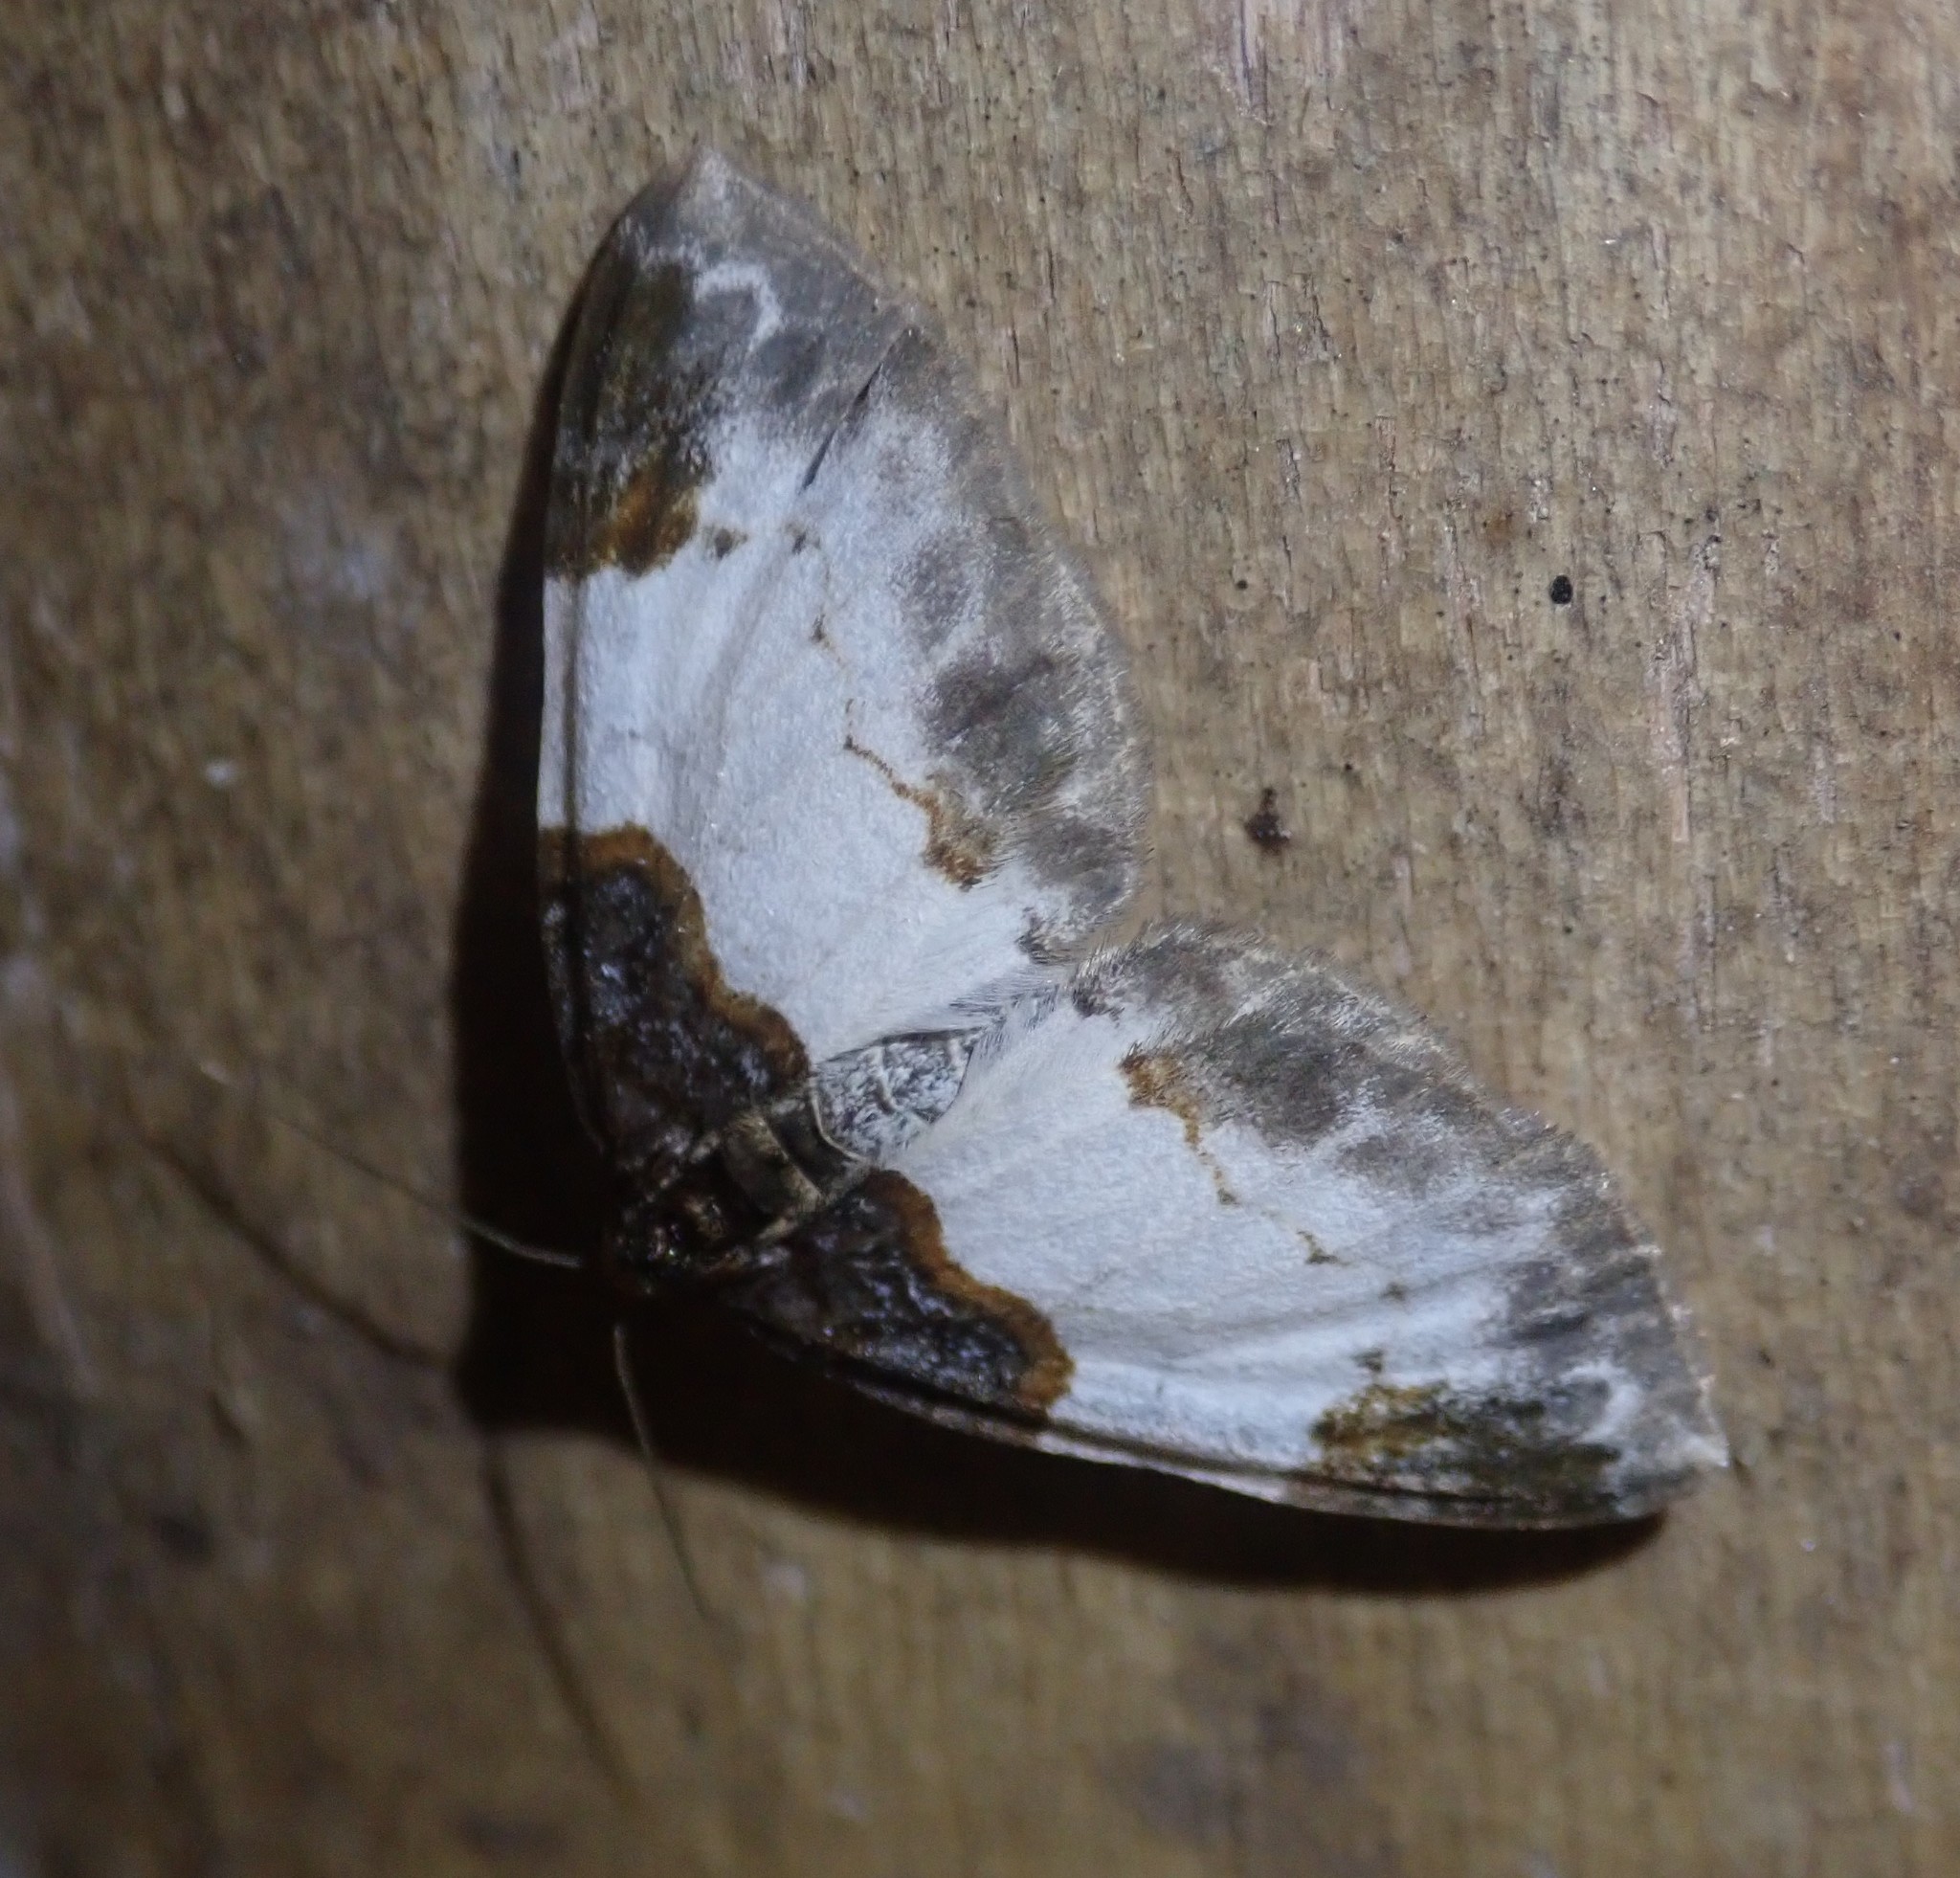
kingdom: Animalia
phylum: Arthropoda
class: Insecta
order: Lepidoptera
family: Geometridae
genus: Mesoleuca
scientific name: Mesoleuca albicillata
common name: Beautiful carpet
